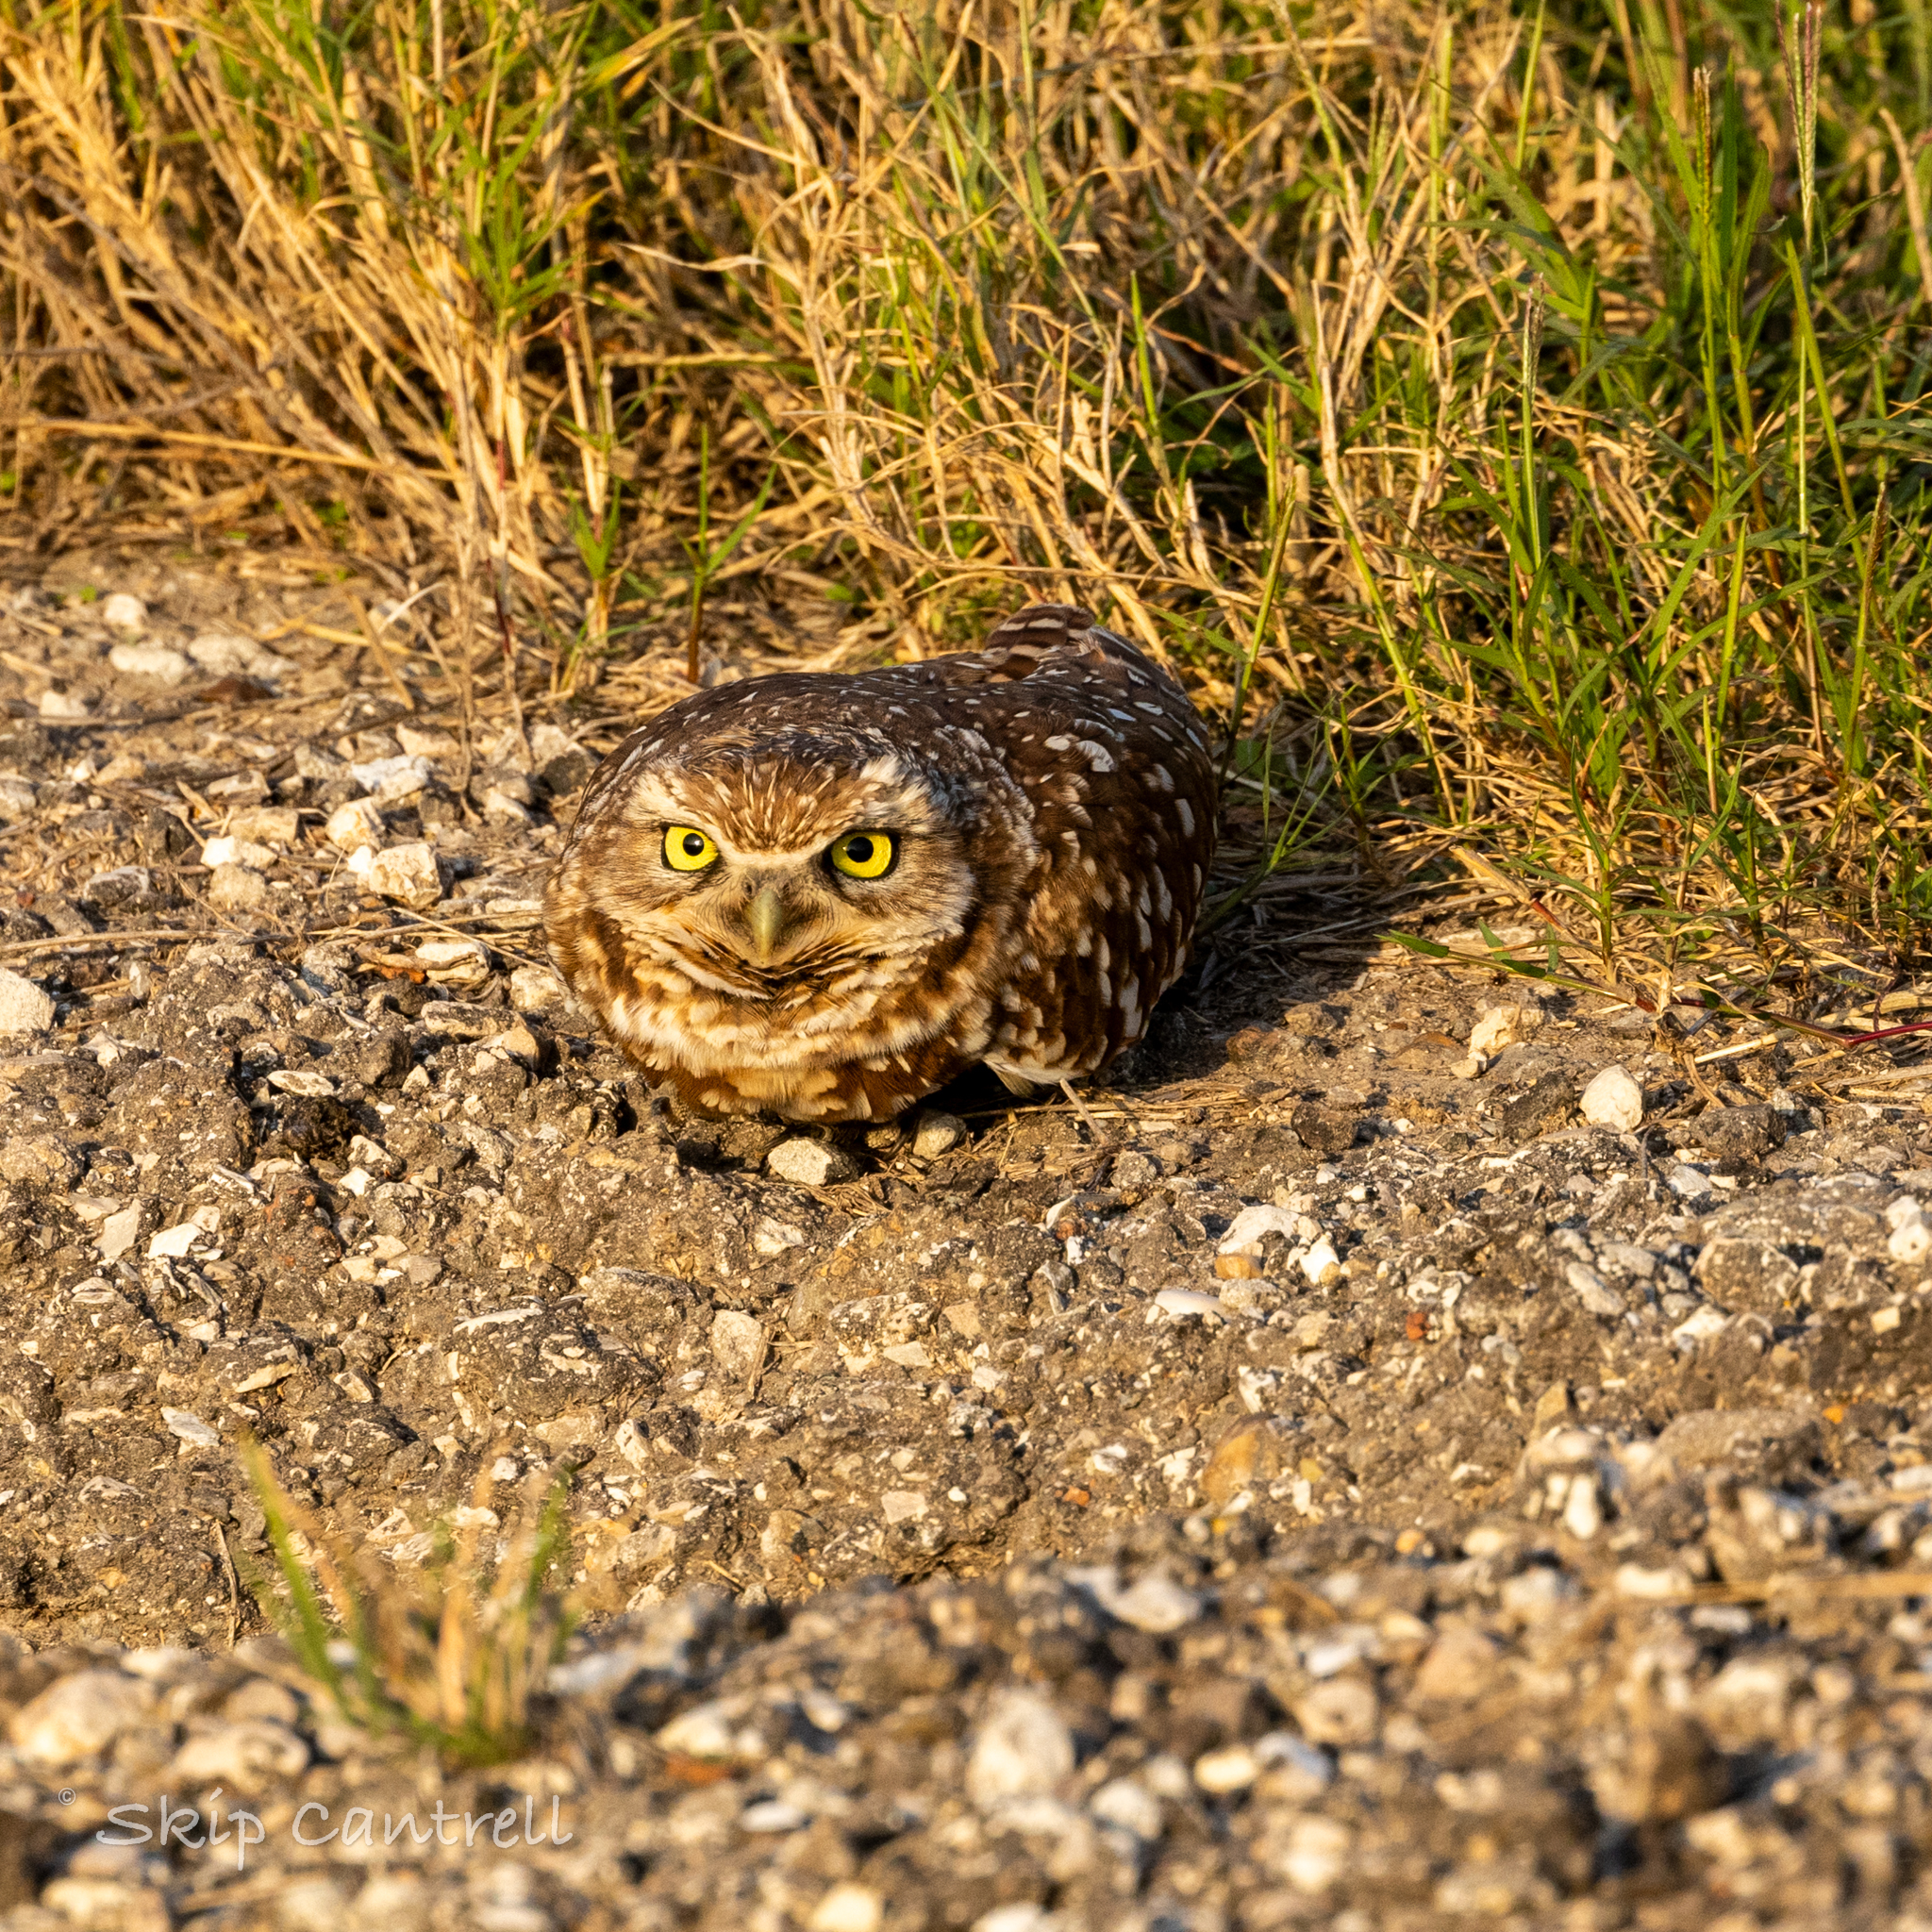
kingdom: Animalia
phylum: Chordata
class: Aves
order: Strigiformes
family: Strigidae
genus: Athene
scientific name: Athene cunicularia
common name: Burrowing owl
